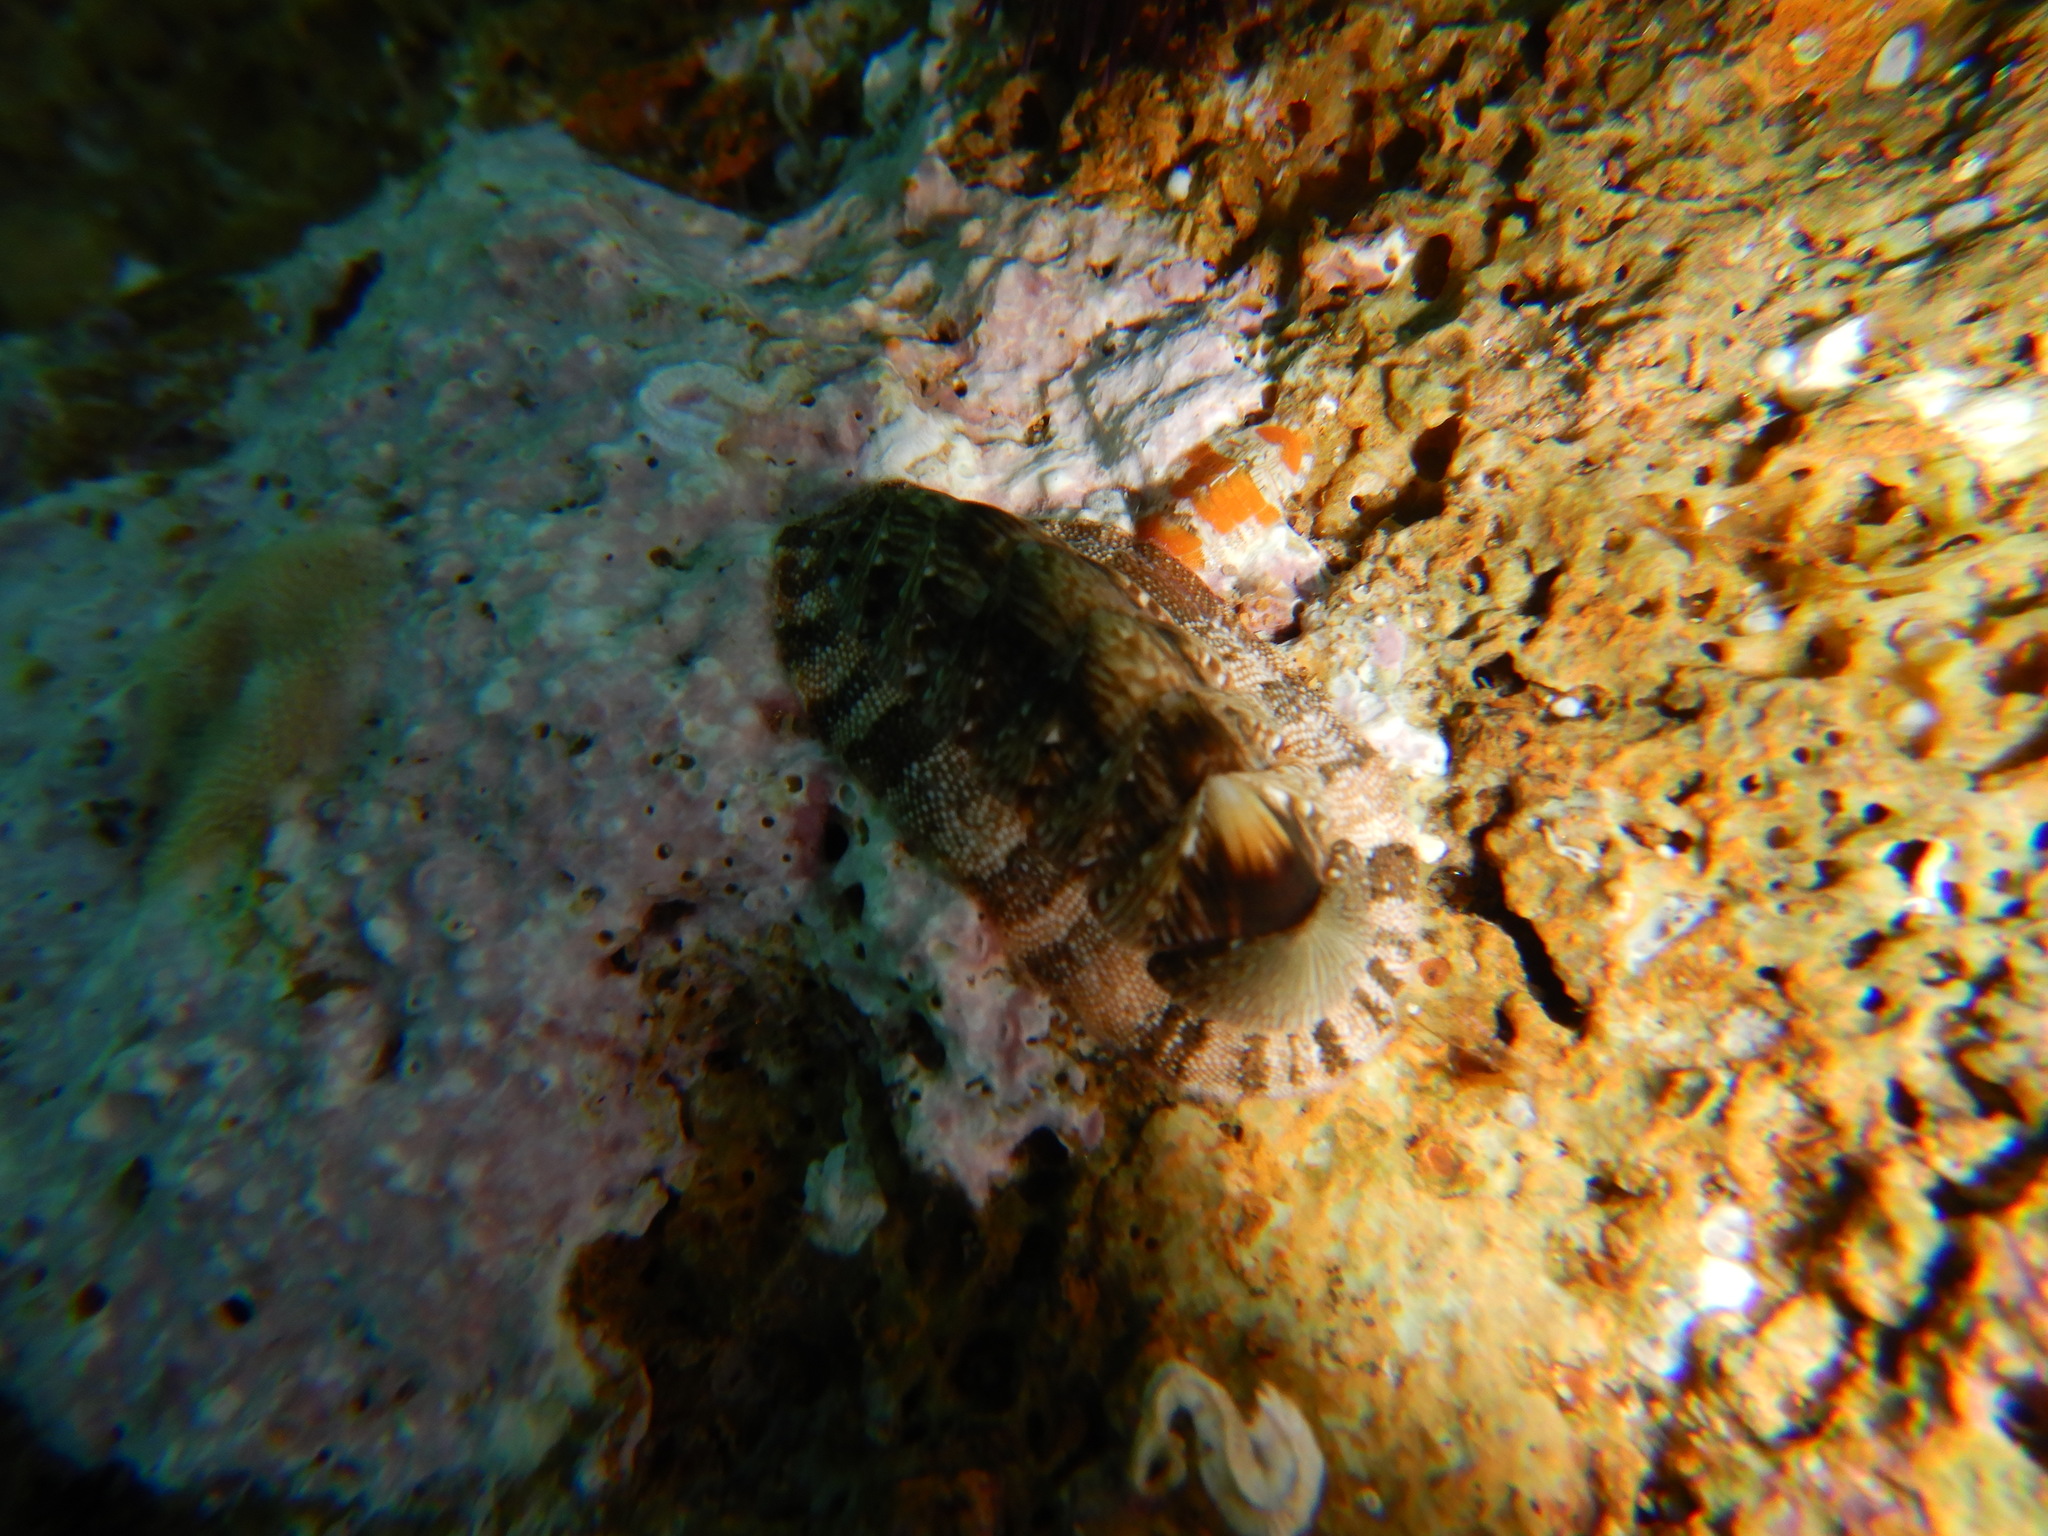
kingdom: Animalia
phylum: Mollusca
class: Polyplacophora
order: Chitonida
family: Chitonidae
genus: Rhyssoplax
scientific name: Rhyssoplax olivacea
